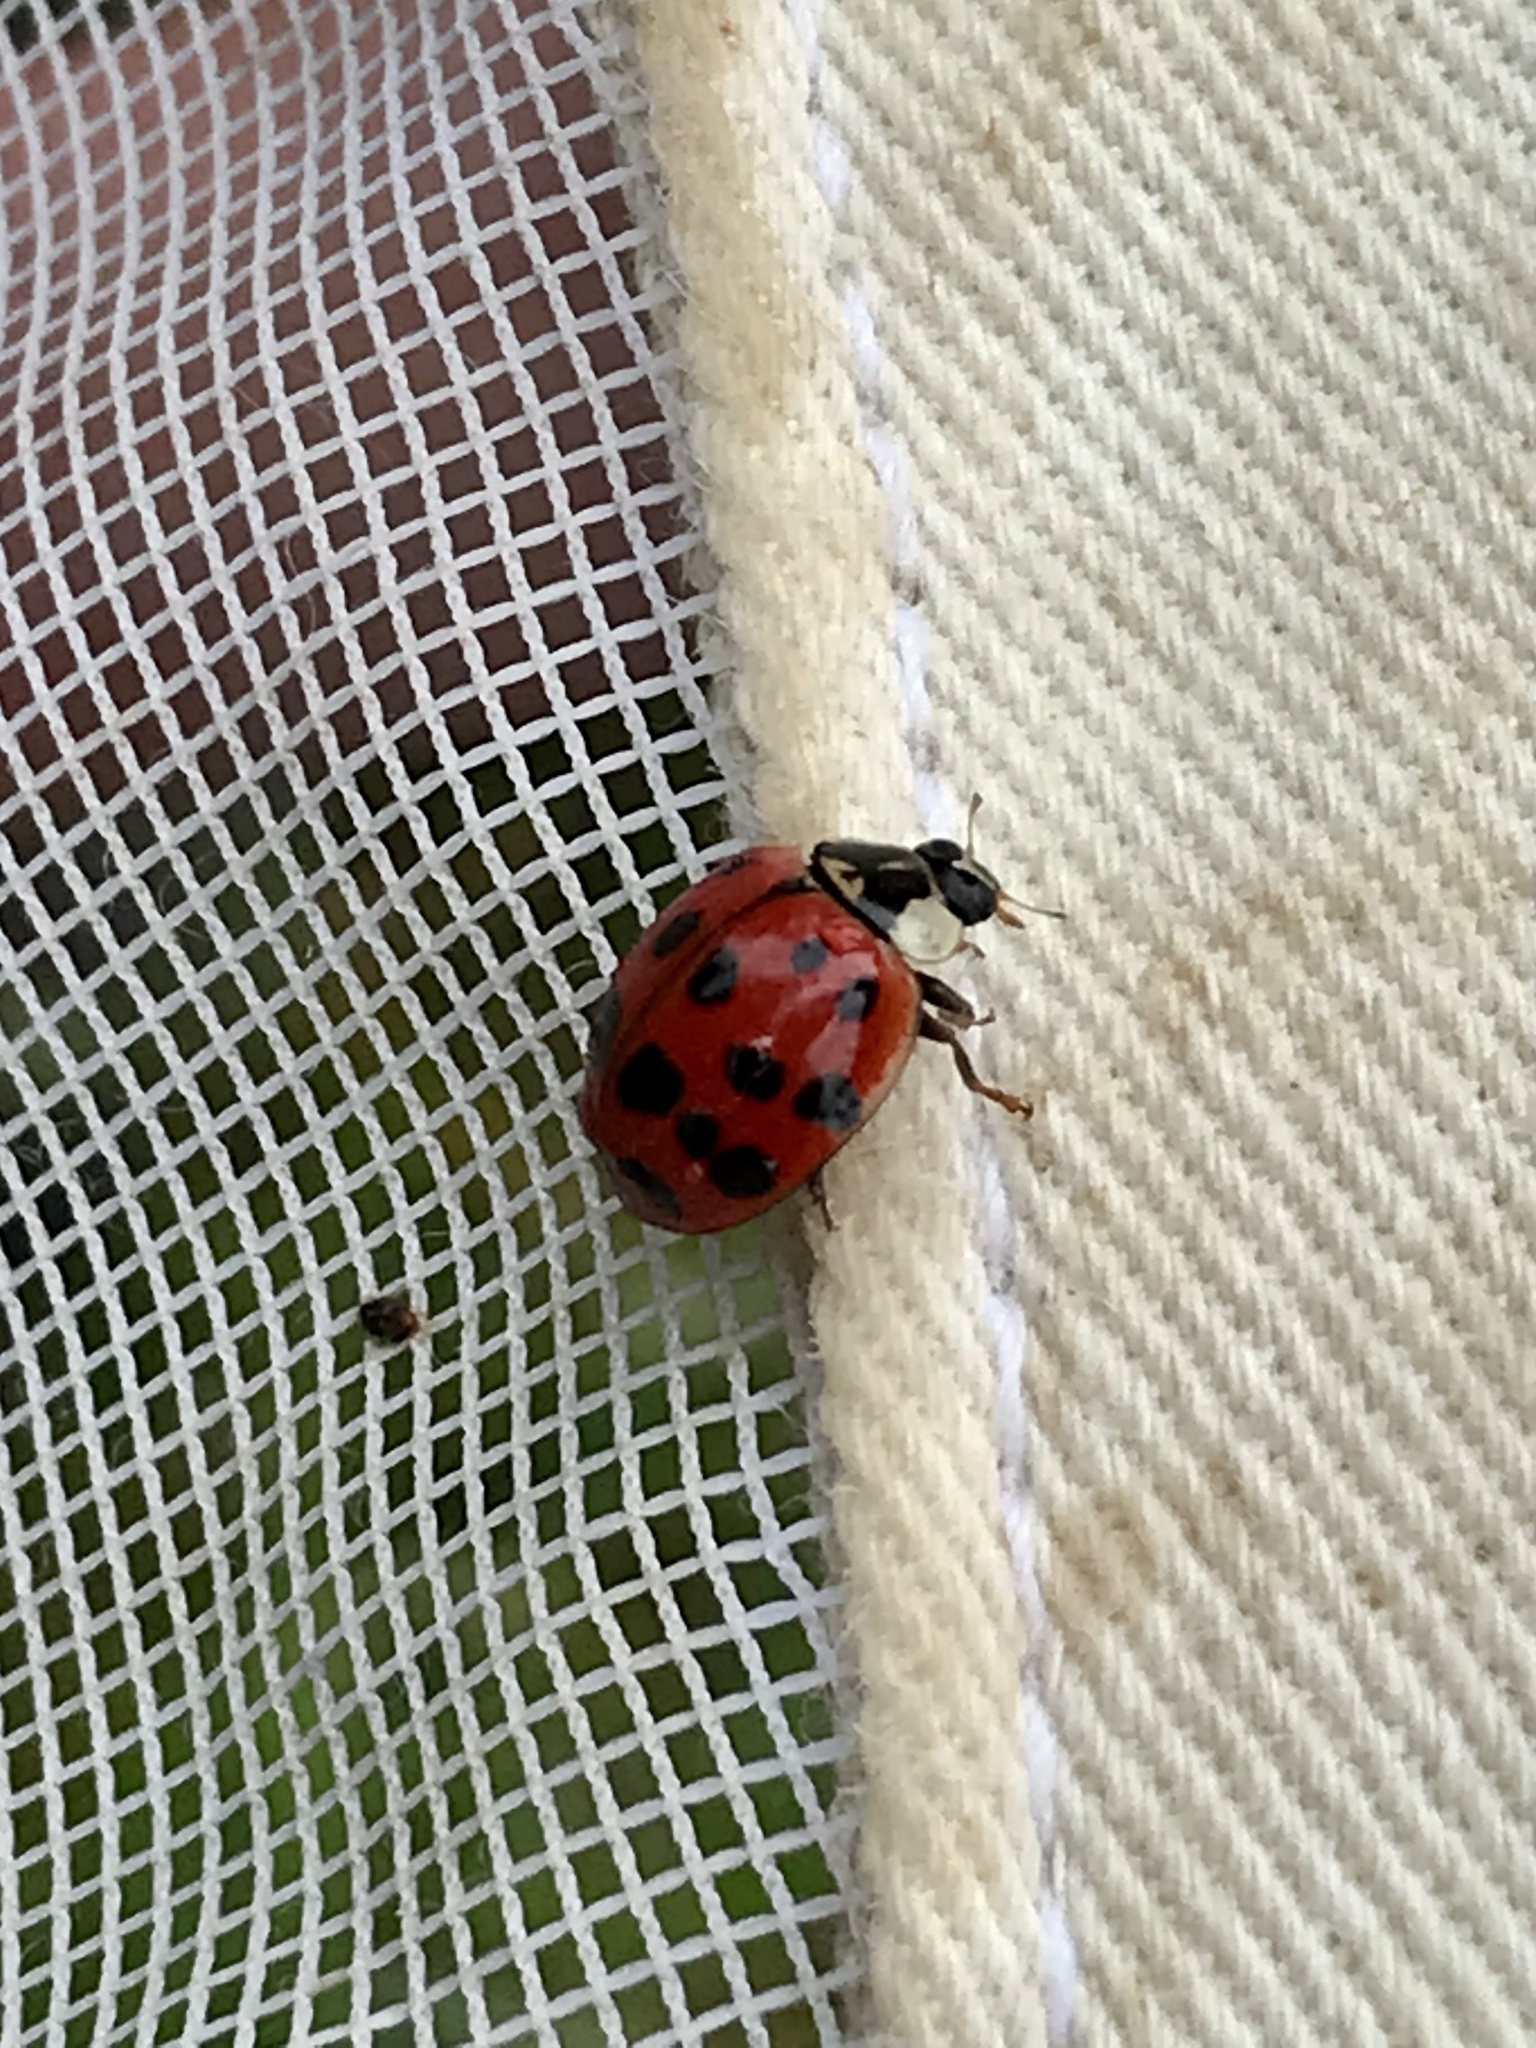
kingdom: Animalia
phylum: Arthropoda
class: Insecta
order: Coleoptera
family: Coccinellidae
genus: Harmonia
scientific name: Harmonia axyridis
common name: Harlequin ladybird
